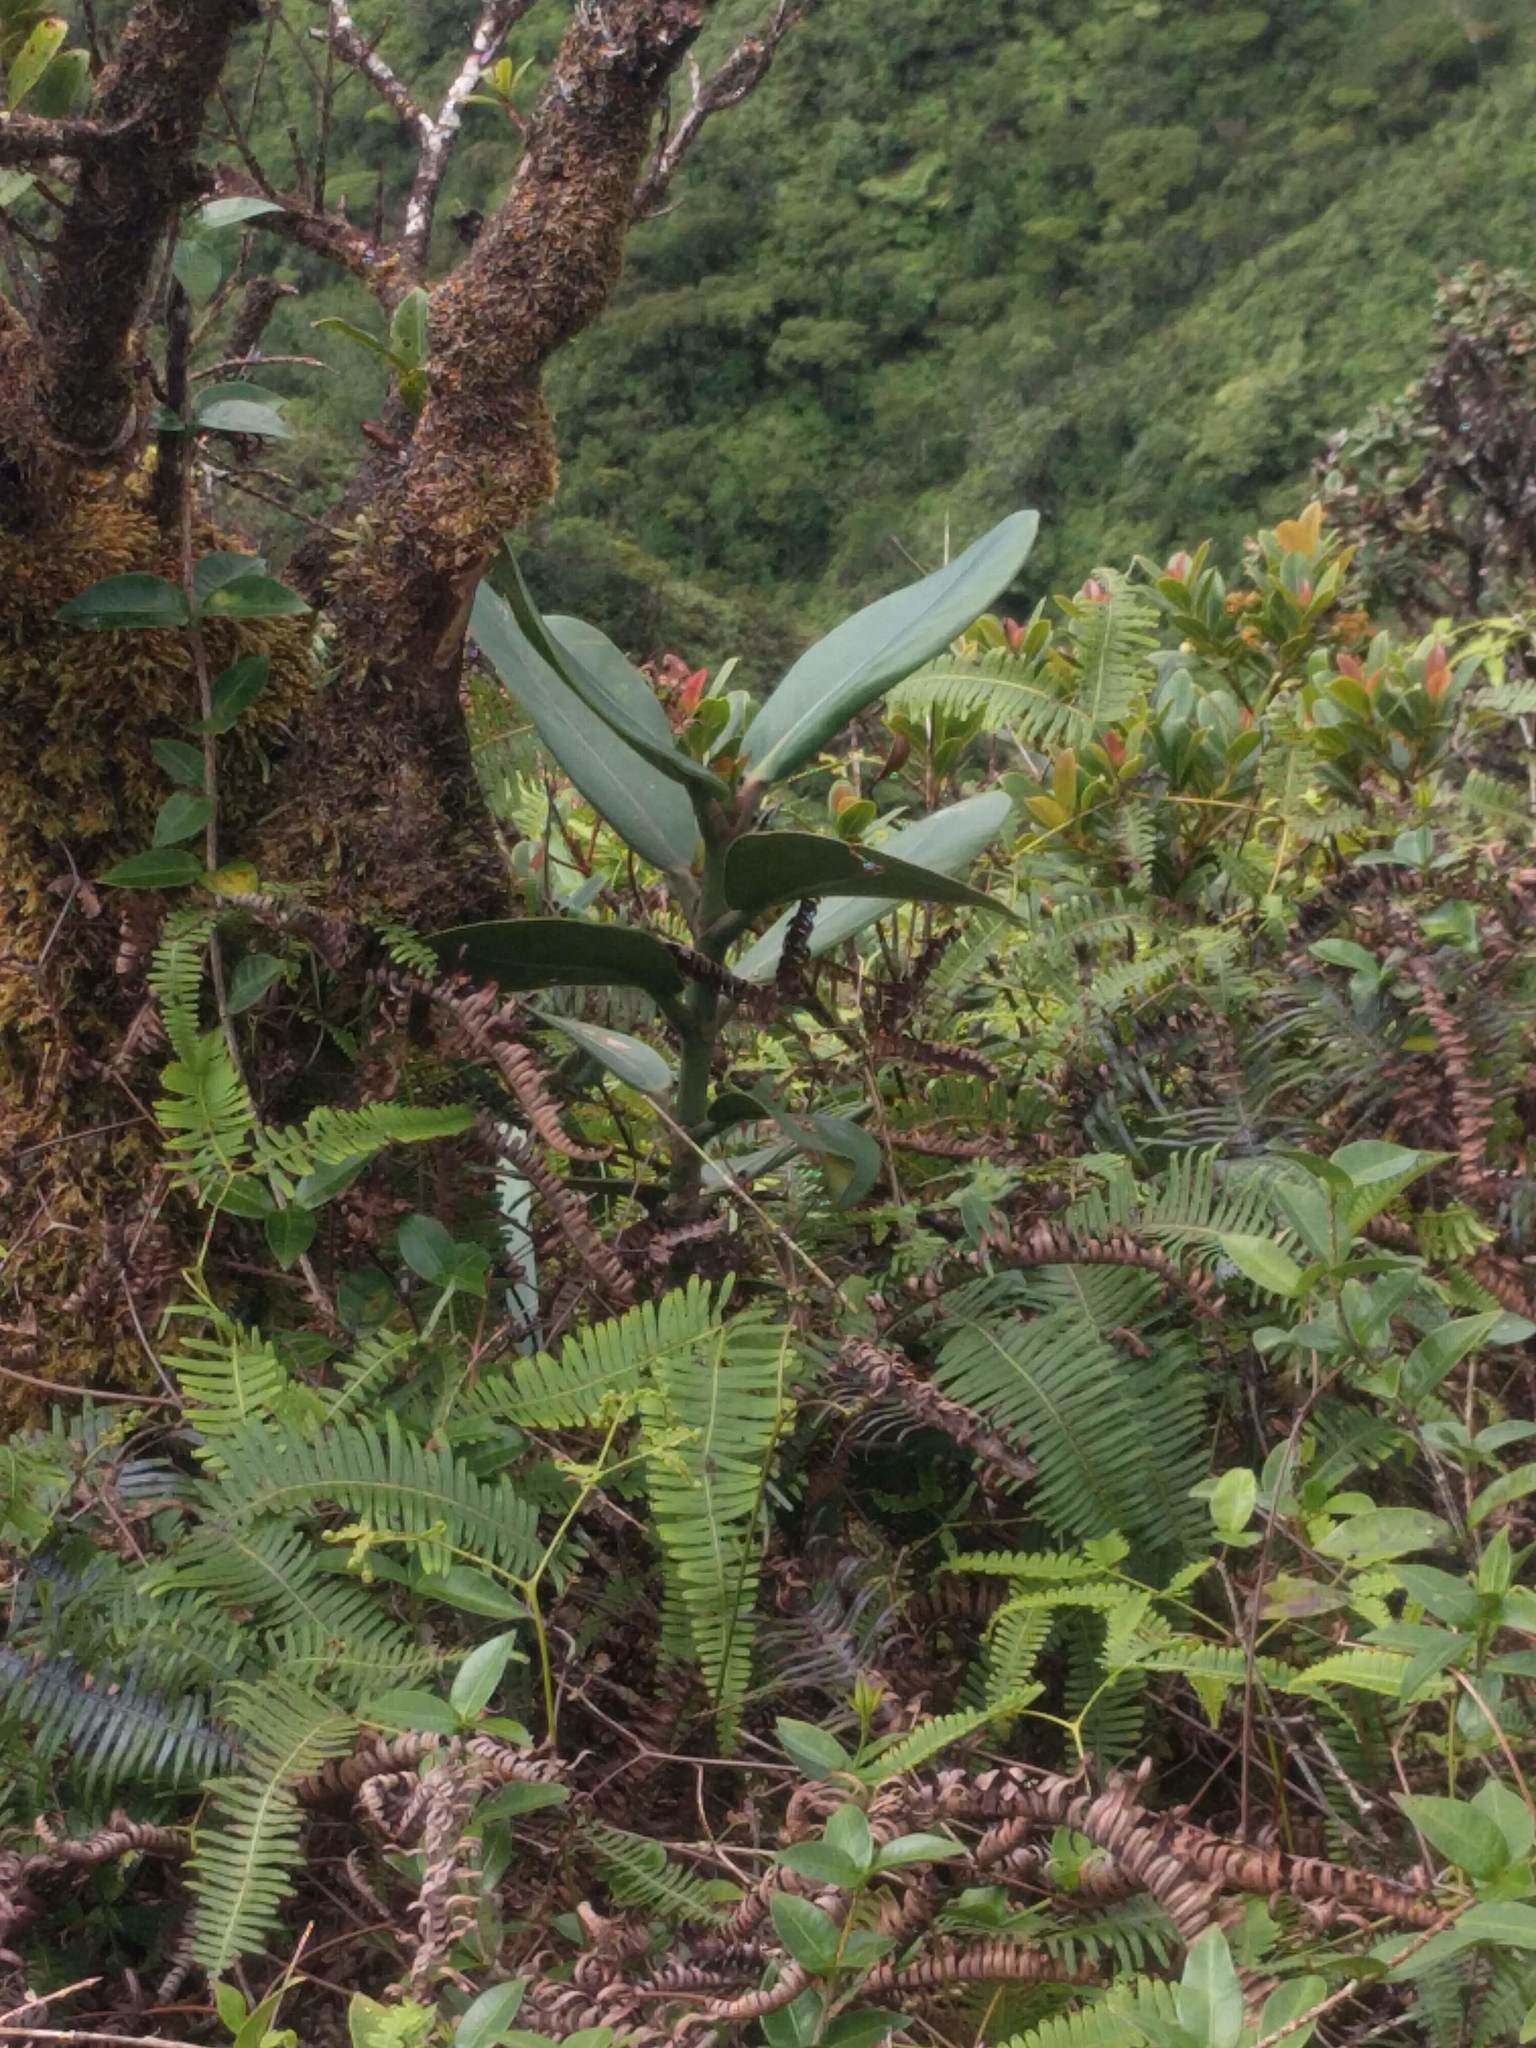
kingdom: Plantae
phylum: Tracheophyta
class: Magnoliopsida
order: Malpighiales
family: Clusiaceae
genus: Clusia
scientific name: Clusia rosea
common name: Scotch attorney
